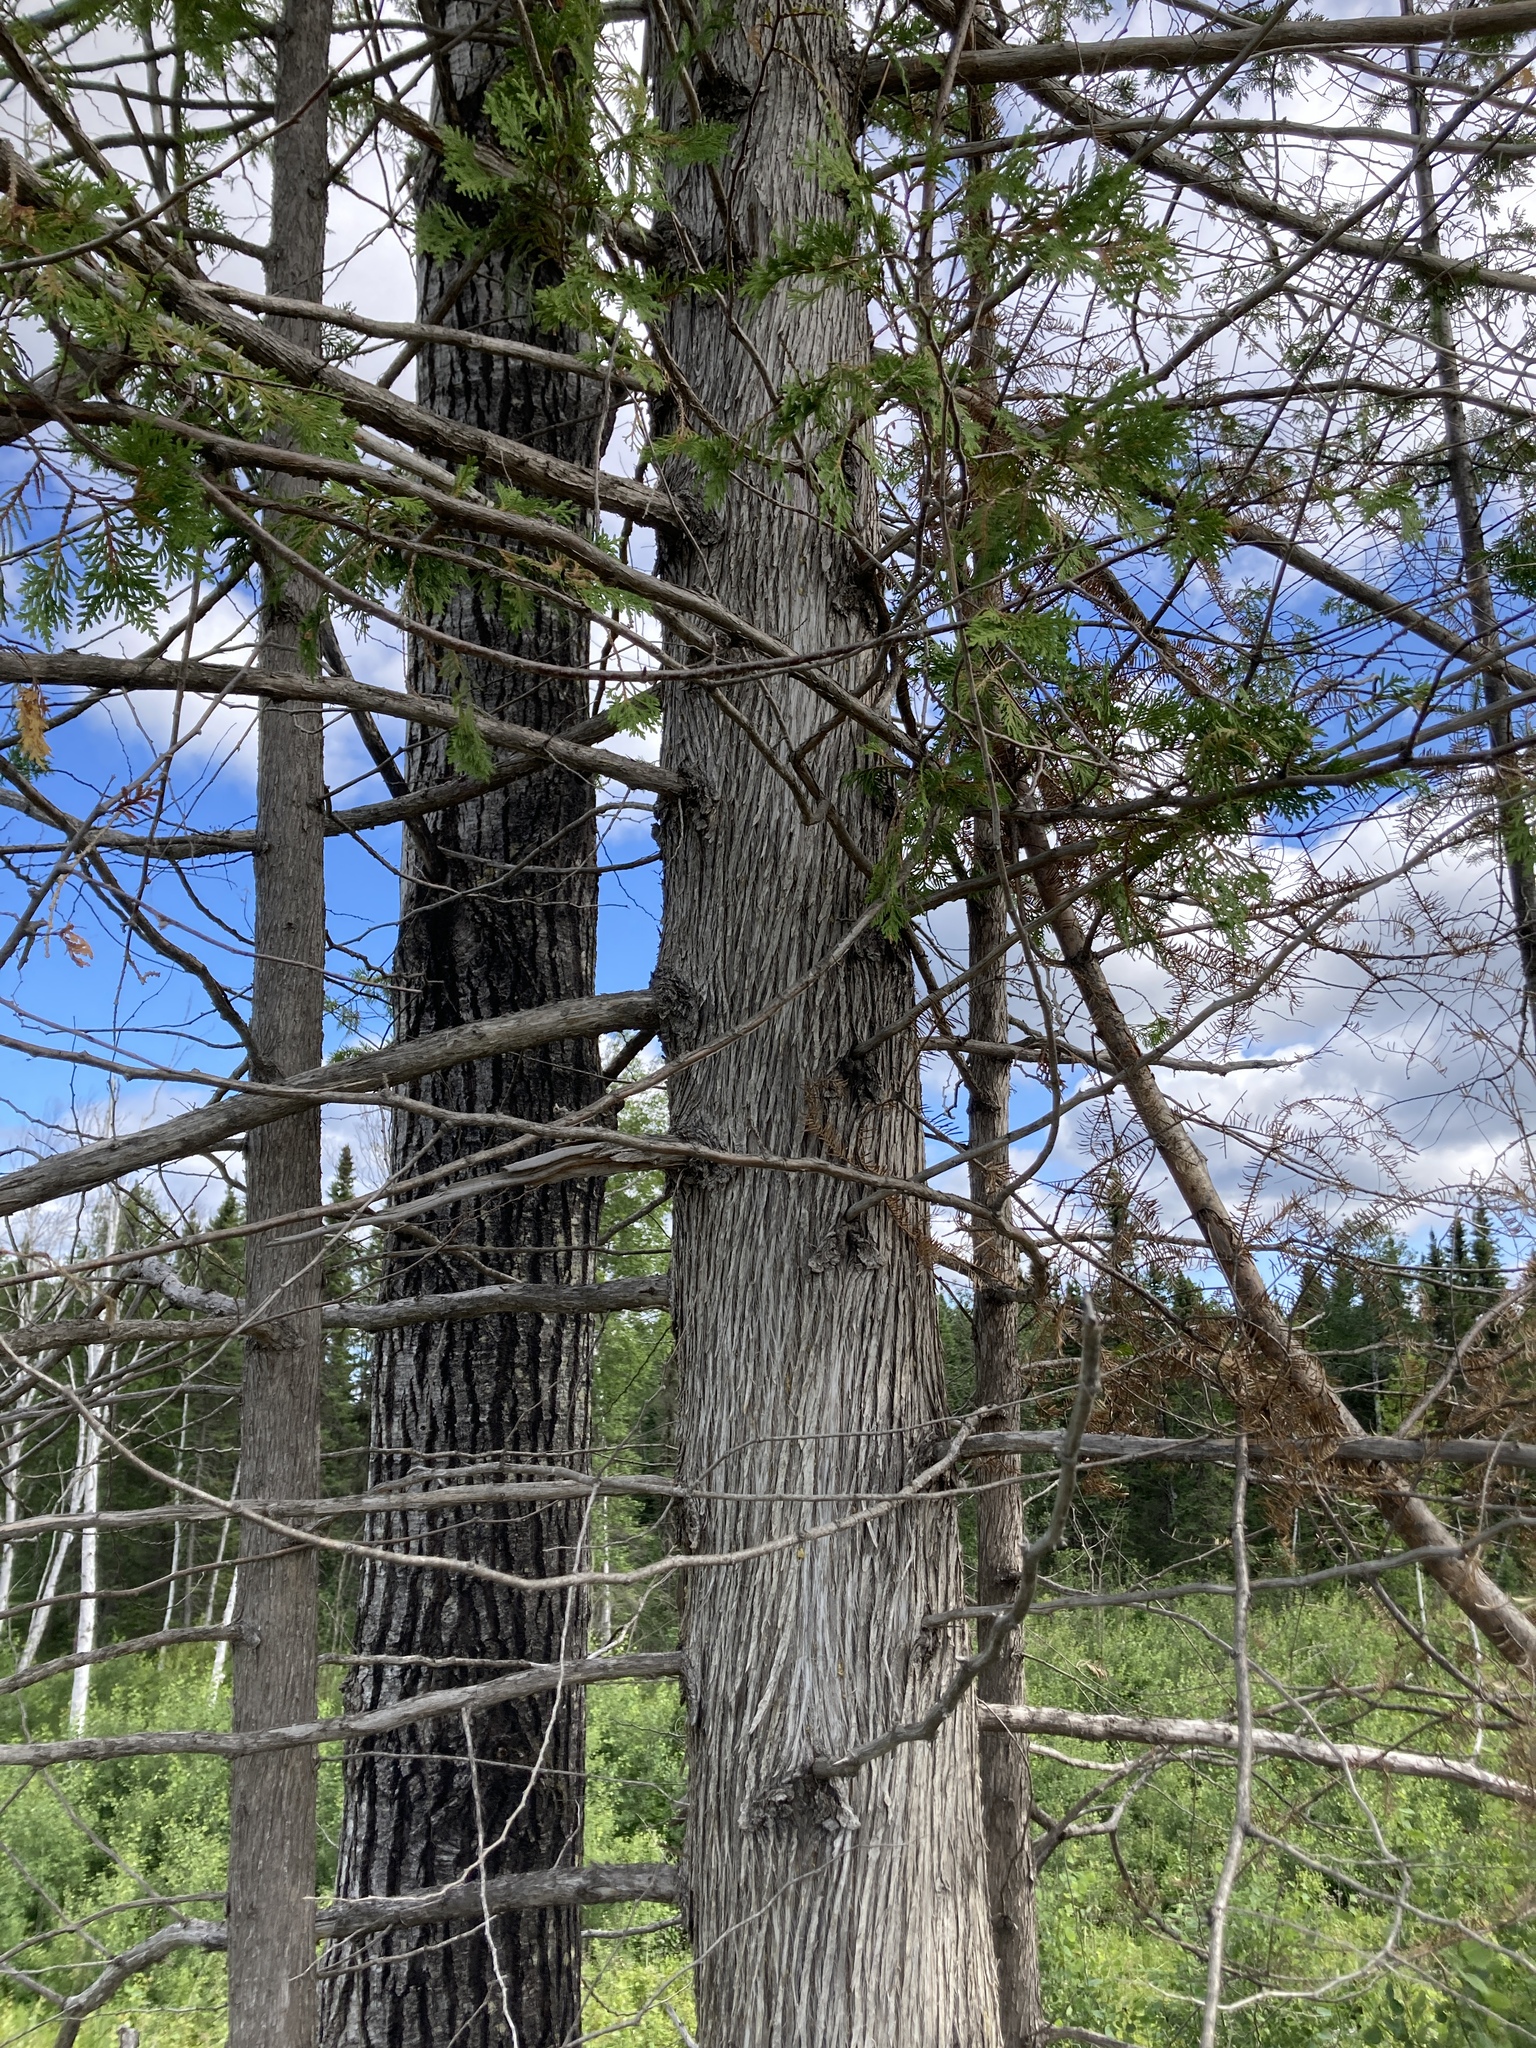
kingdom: Plantae
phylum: Tracheophyta
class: Pinopsida
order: Pinales
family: Cupressaceae
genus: Thuja
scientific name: Thuja occidentalis
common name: Northern white-cedar
